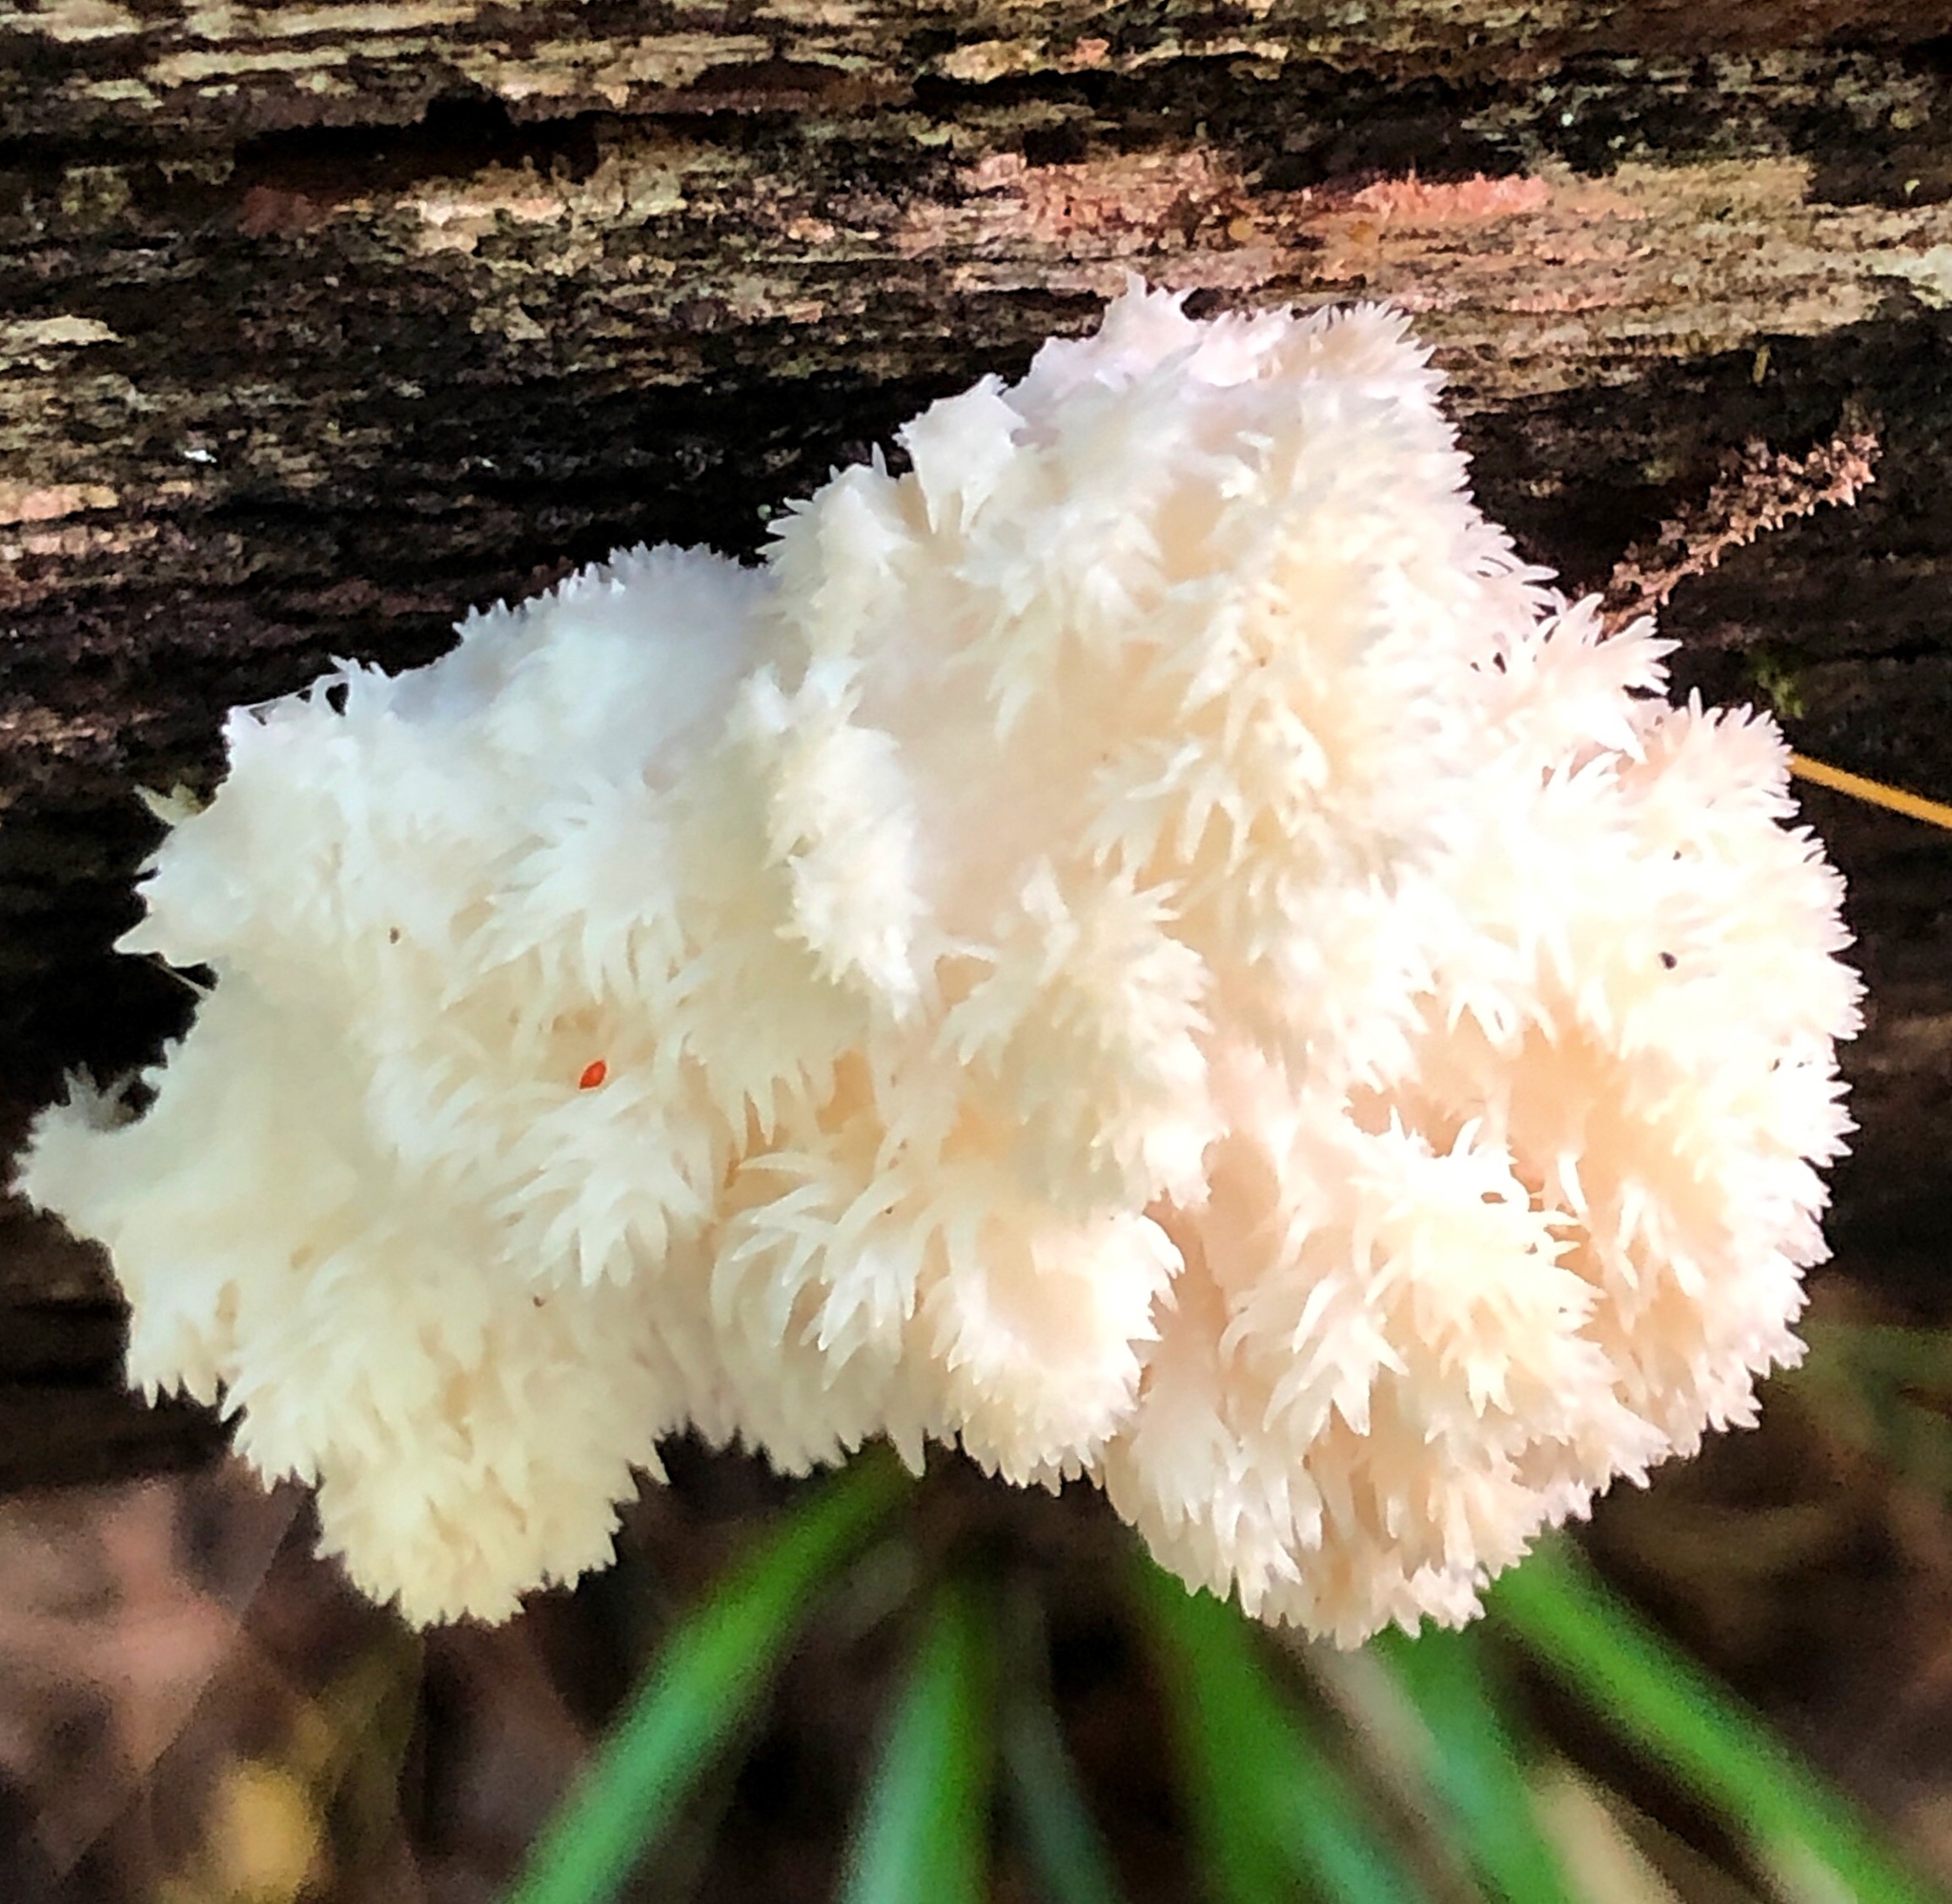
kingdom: Fungi
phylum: Basidiomycota
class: Agaricomycetes
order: Russulales
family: Hericiaceae
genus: Hericium
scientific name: Hericium americanum
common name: Bear's head tooth
